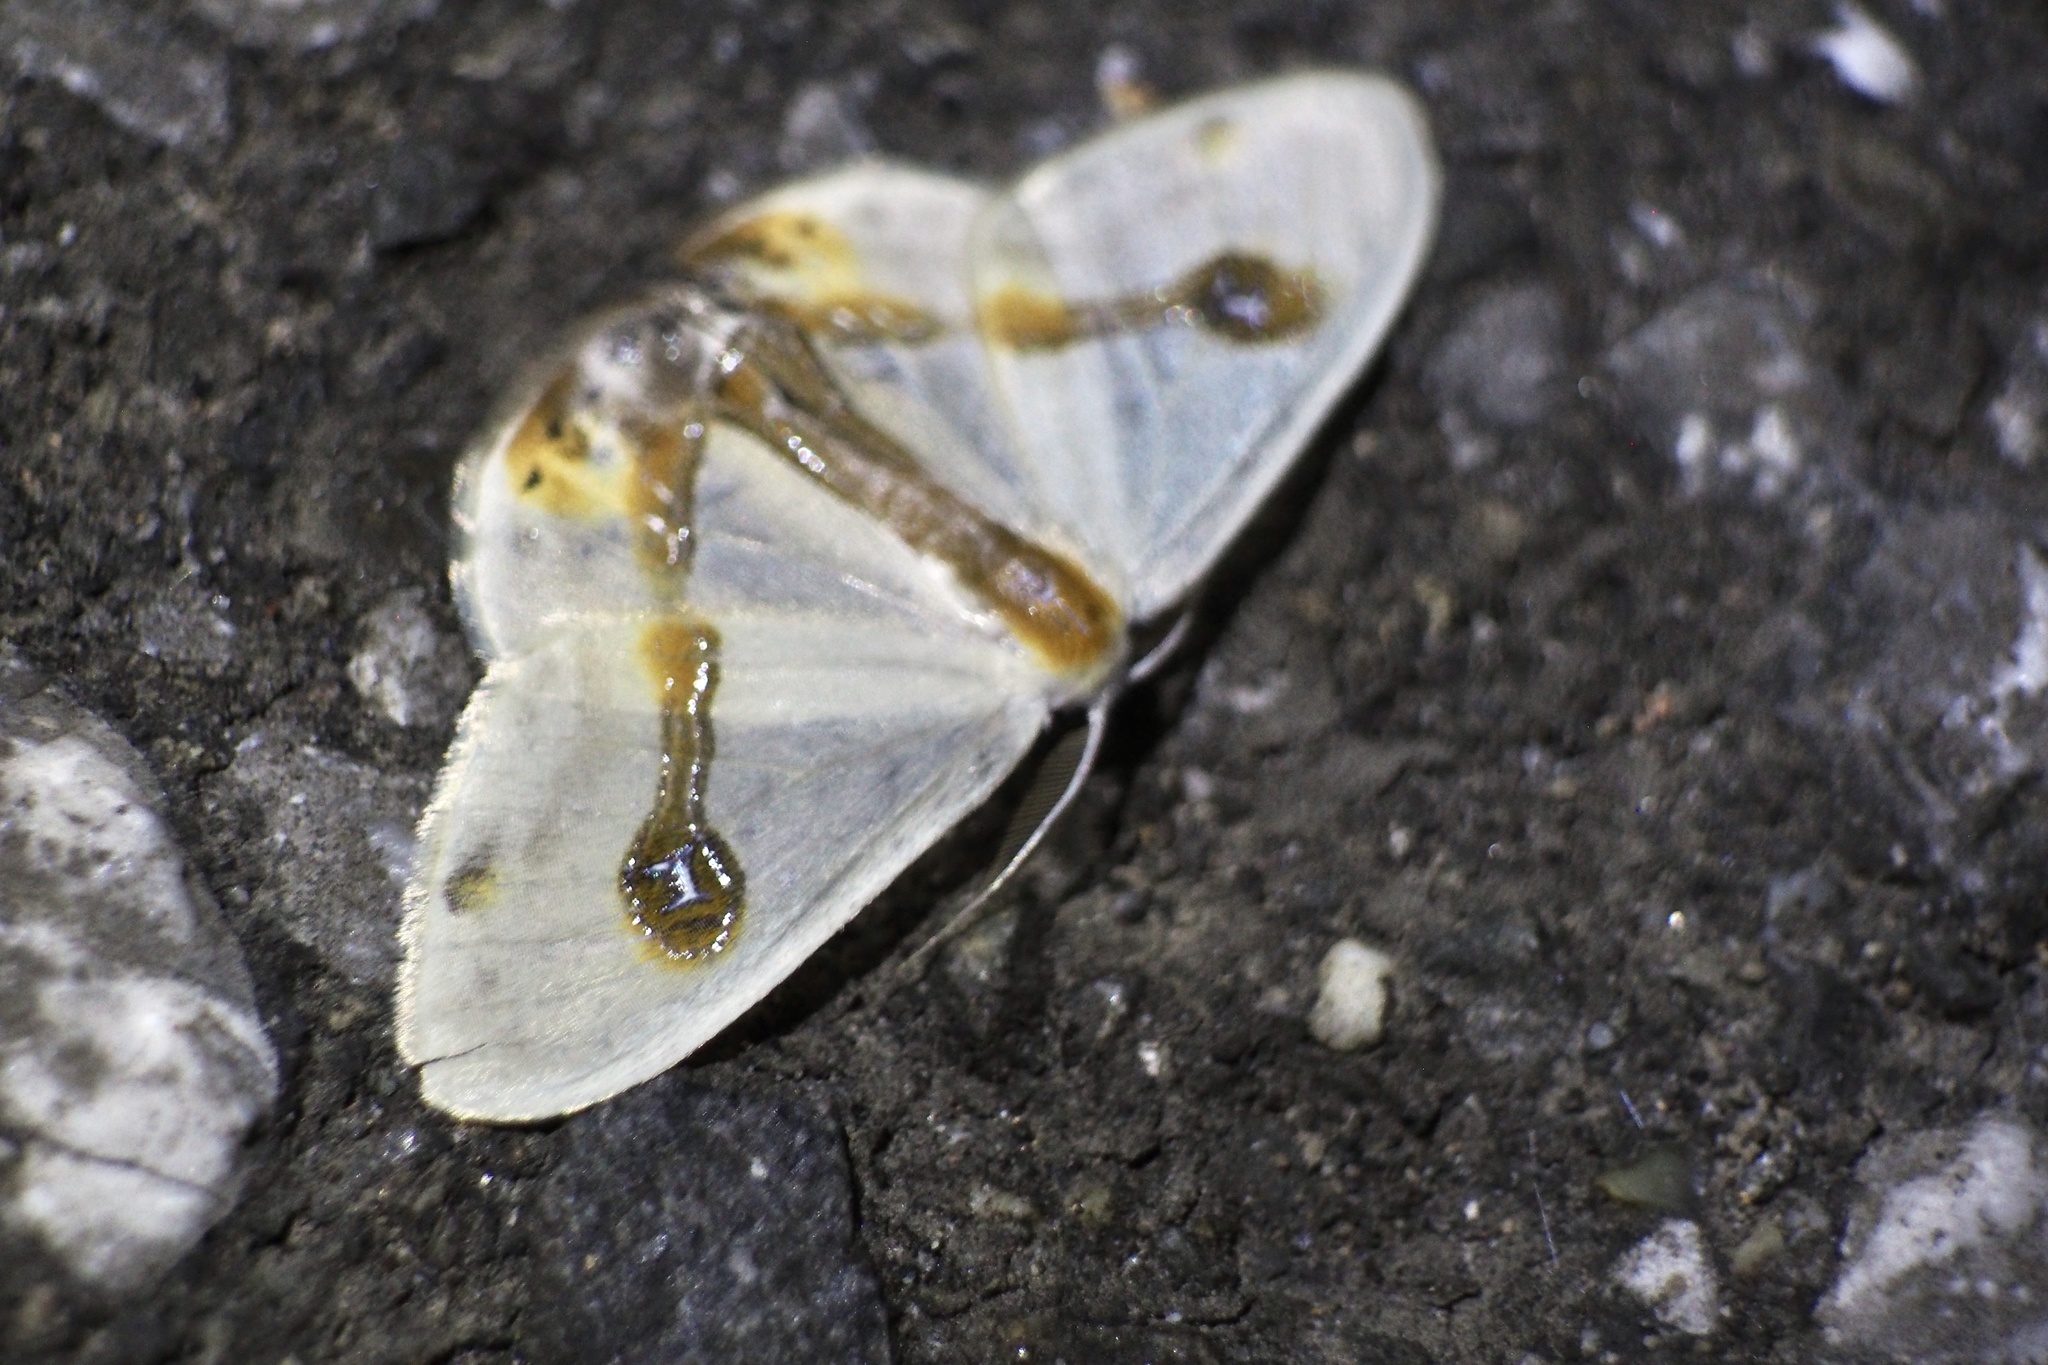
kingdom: Animalia
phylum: Arthropoda
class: Insecta
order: Lepidoptera
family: Drepanidae
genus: Macrocilix
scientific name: Macrocilix mysticata
